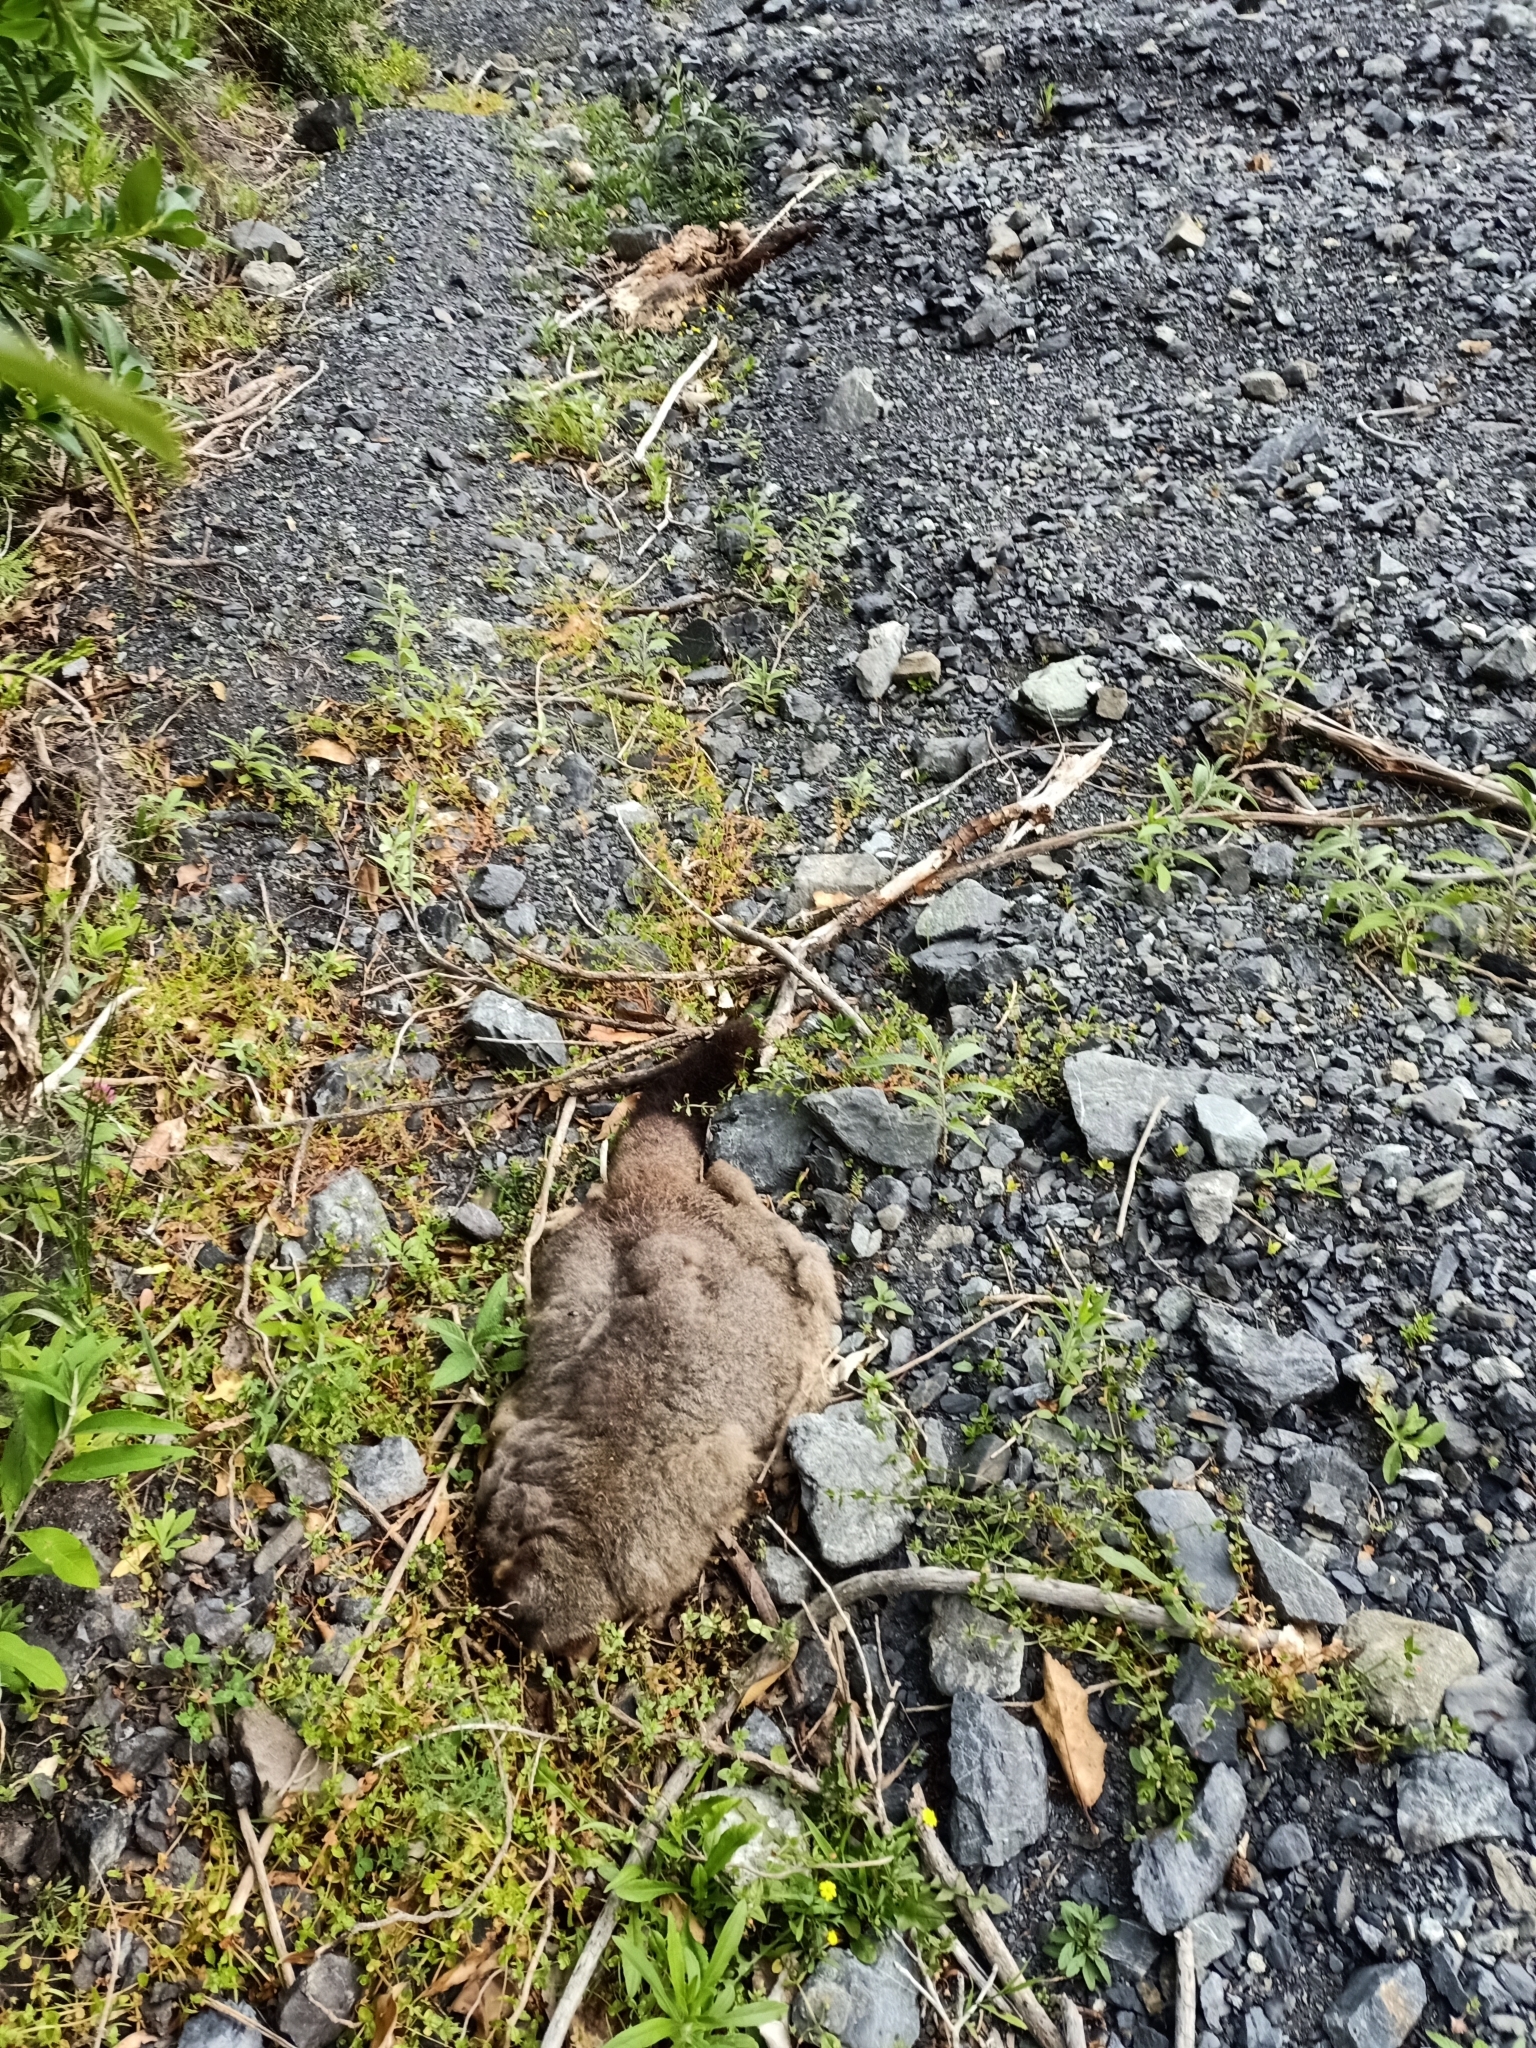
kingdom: Animalia
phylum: Chordata
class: Mammalia
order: Diprotodontia
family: Phalangeridae
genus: Trichosurus
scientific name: Trichosurus vulpecula
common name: Common brushtail
